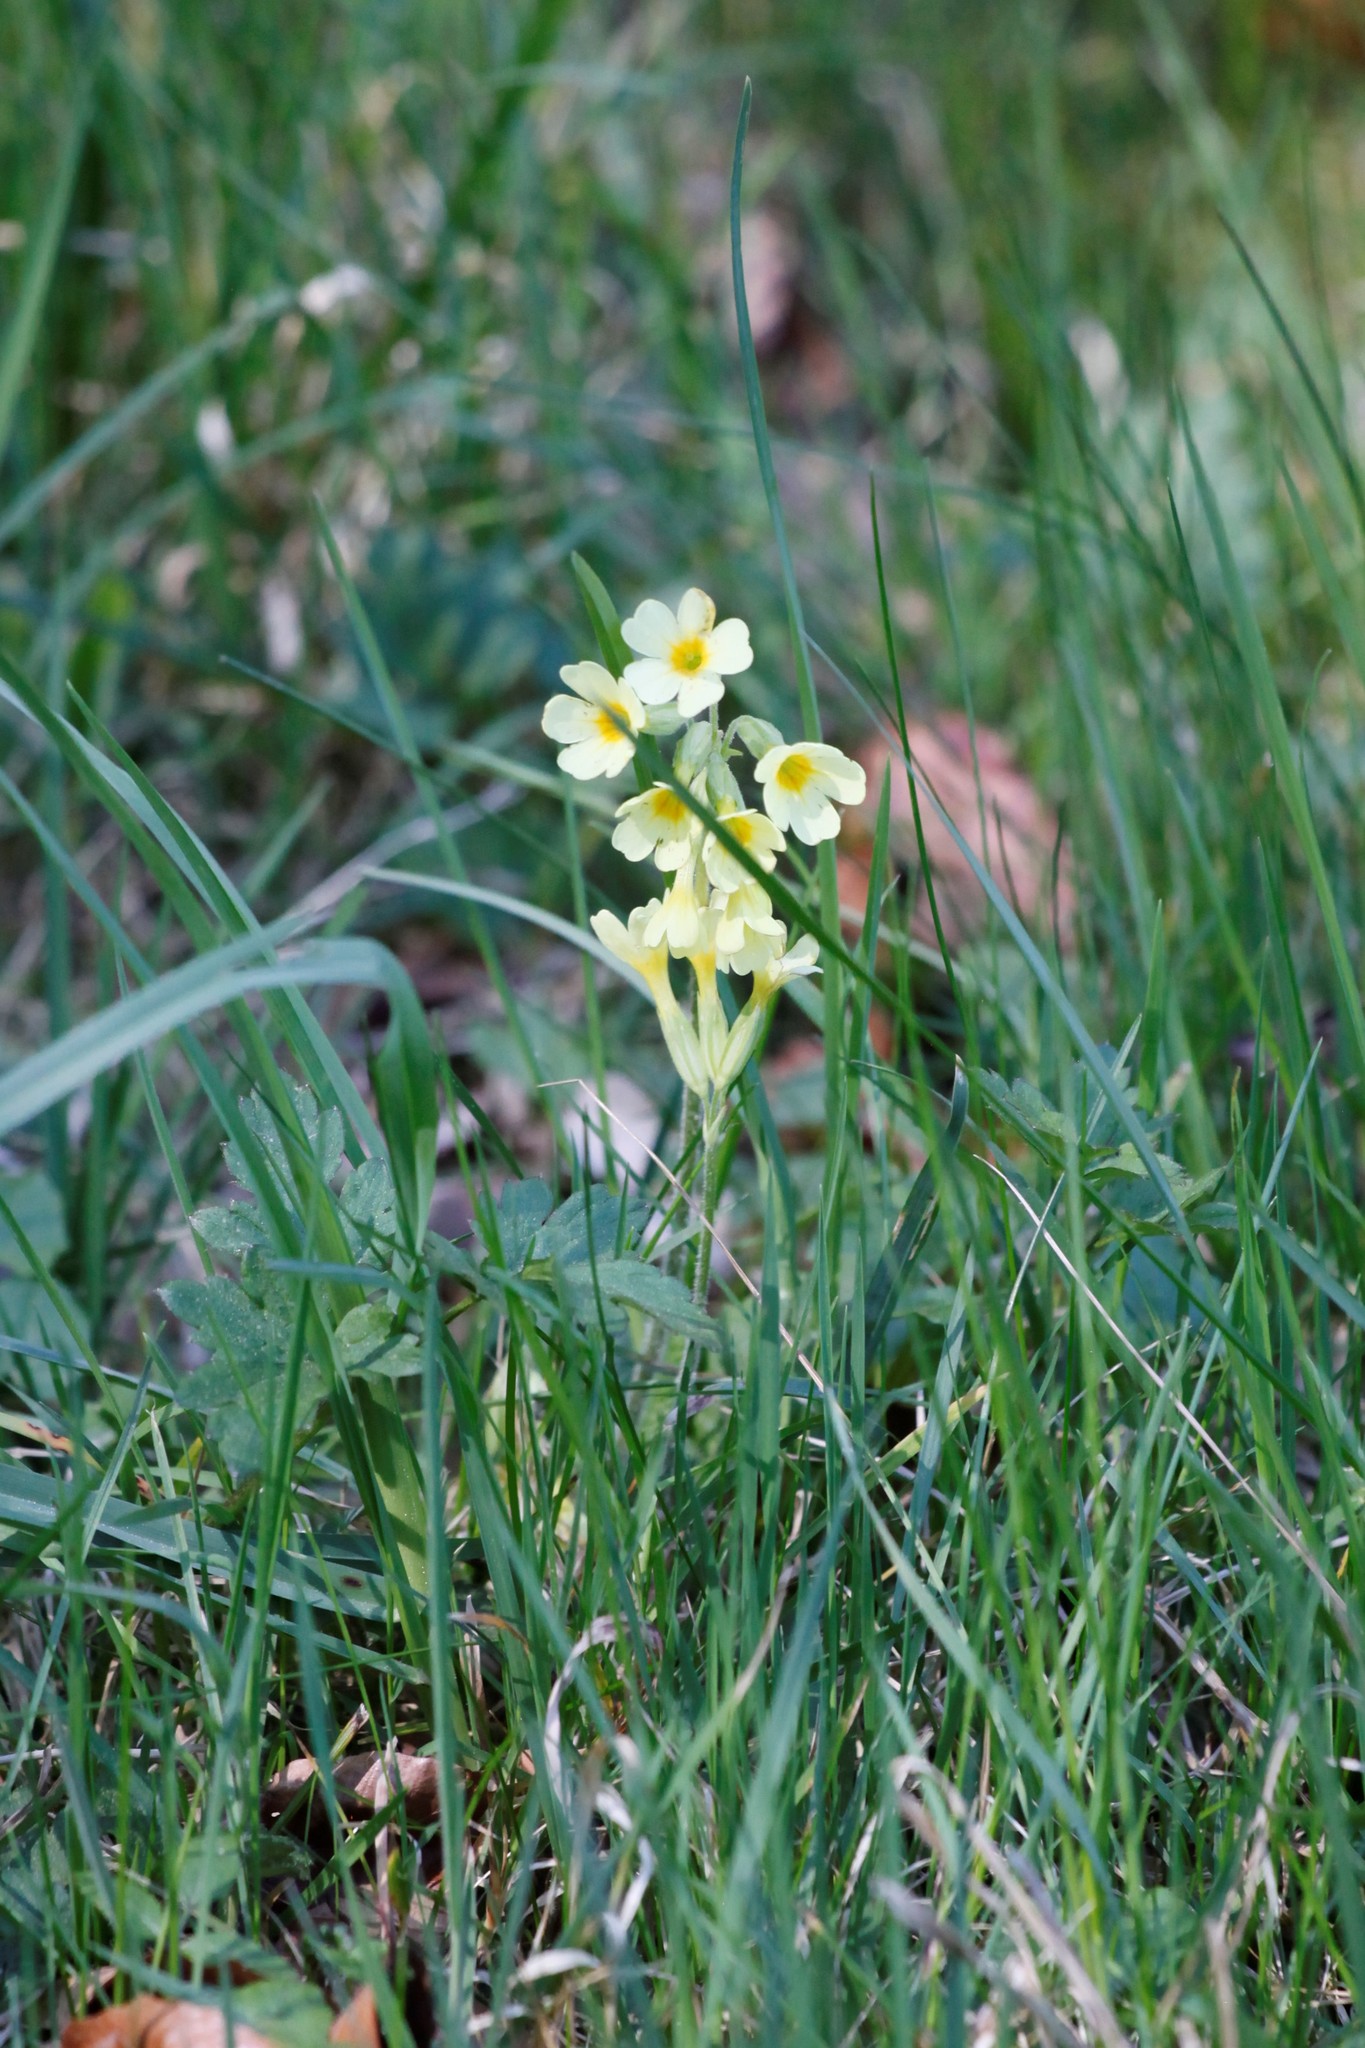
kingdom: Plantae
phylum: Tracheophyta
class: Magnoliopsida
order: Ericales
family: Primulaceae
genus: Primula
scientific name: Primula elatior
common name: Oxlip
